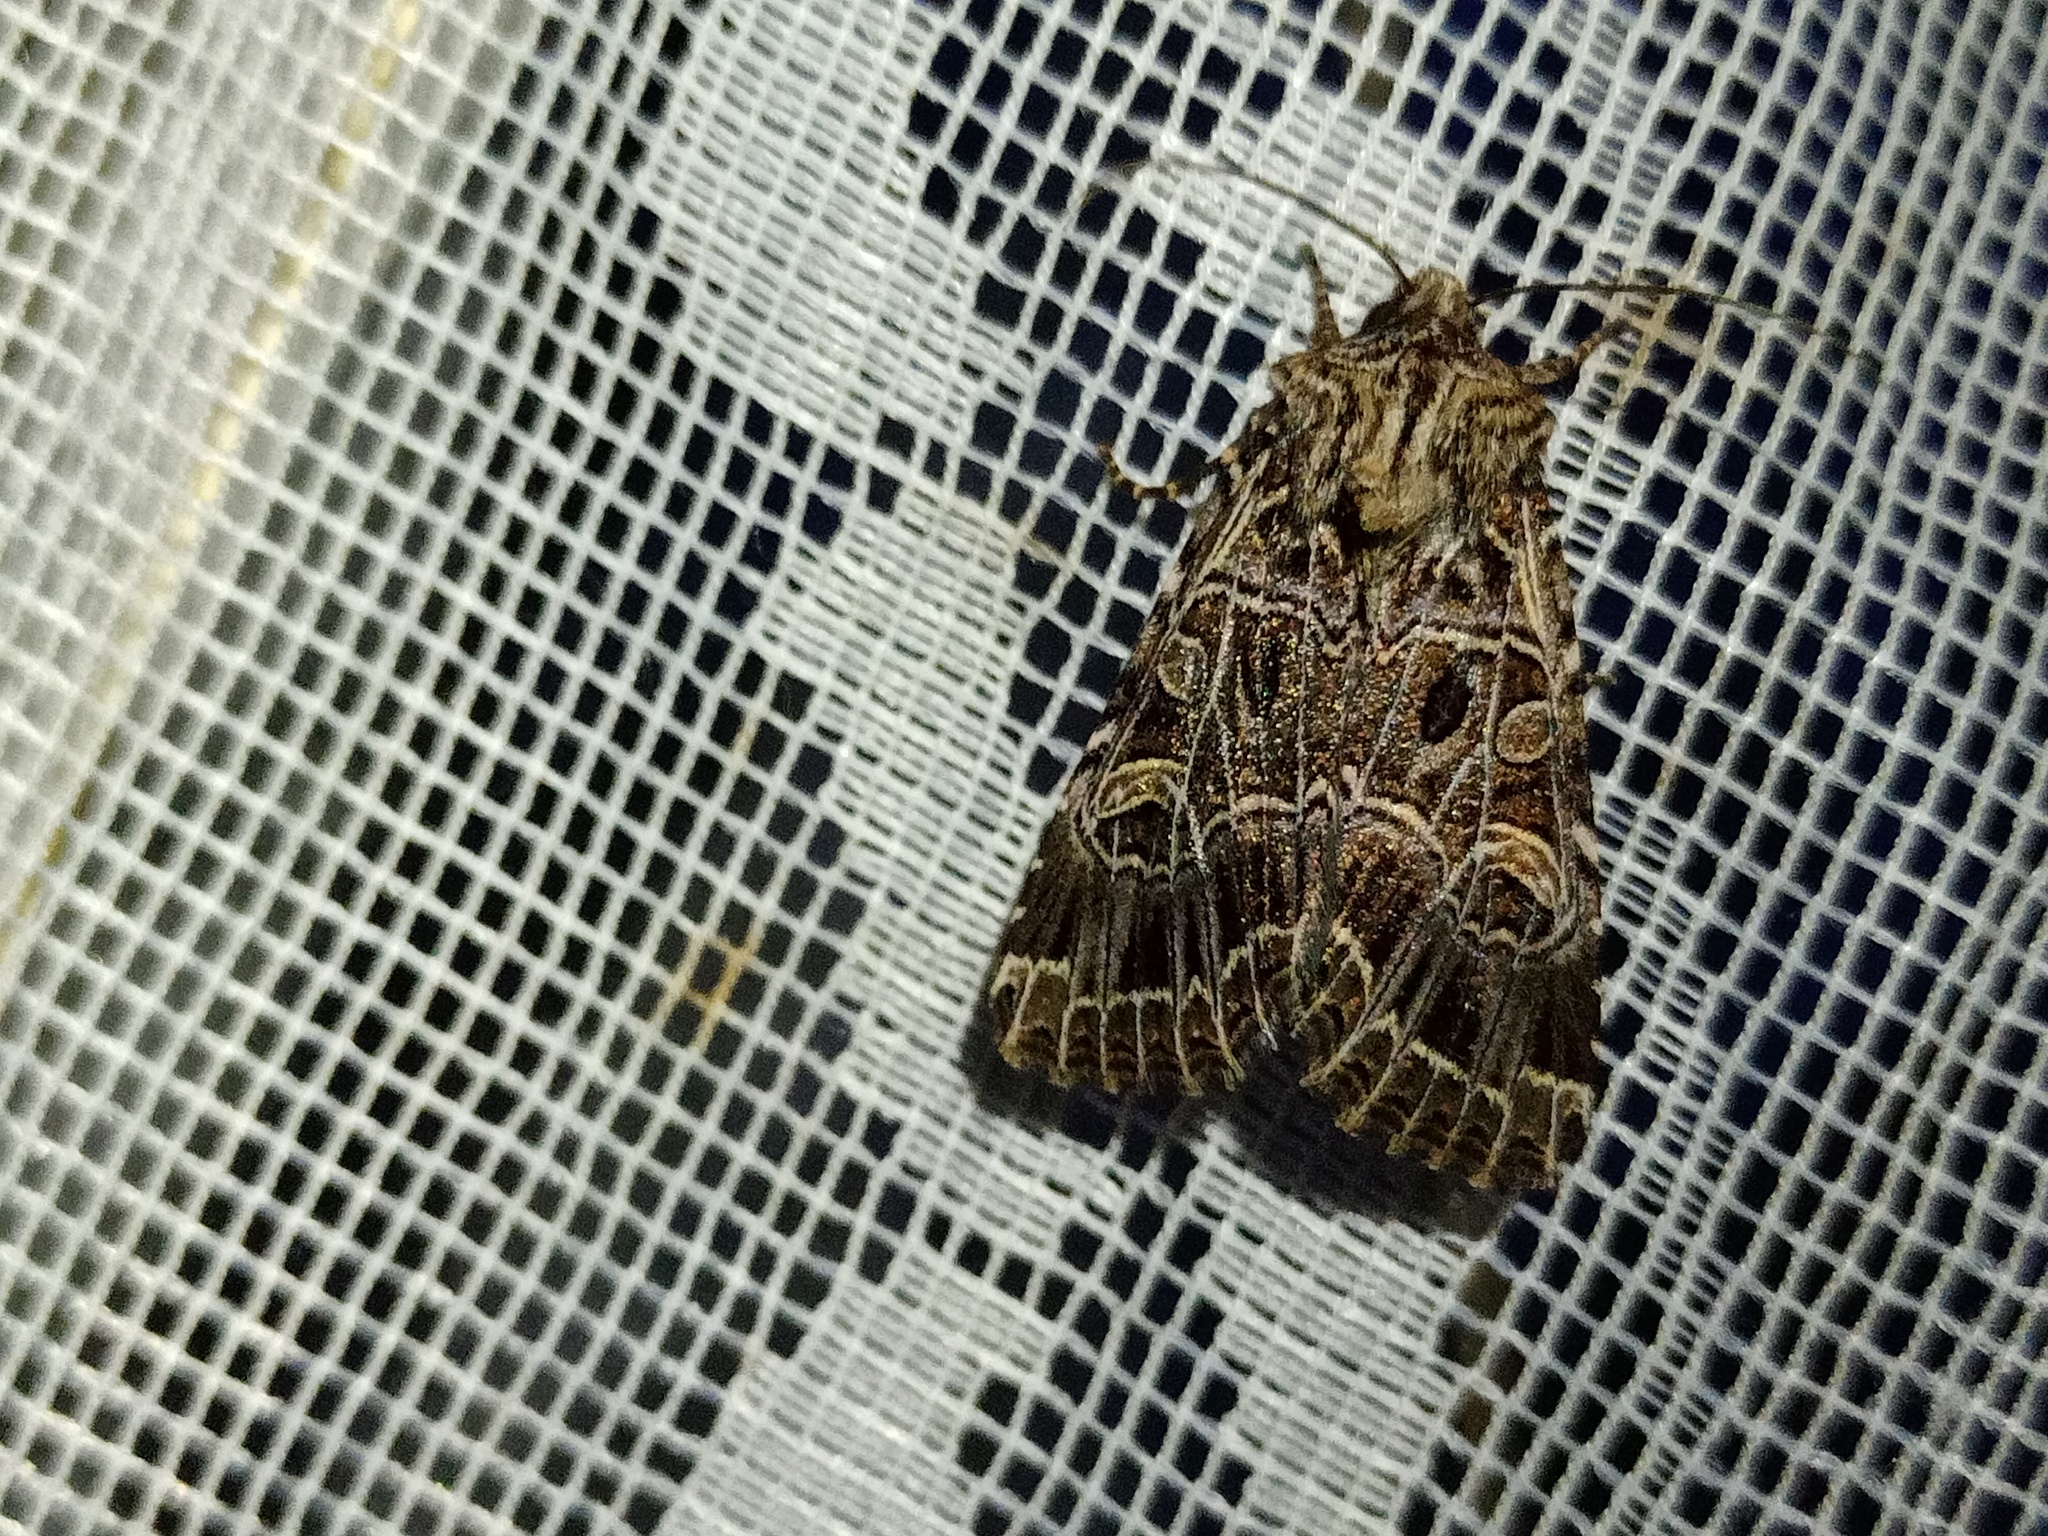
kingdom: Animalia
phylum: Arthropoda
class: Insecta
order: Lepidoptera
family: Noctuidae
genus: Sideridis
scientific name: Sideridis reticulata
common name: Bordered gothic
